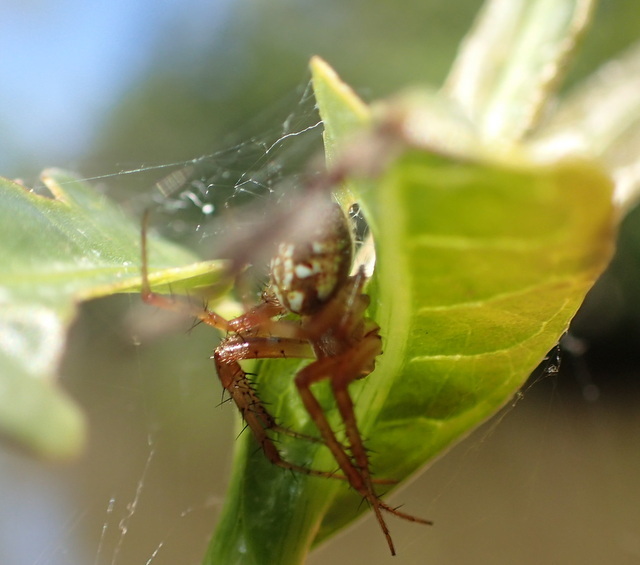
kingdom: Animalia
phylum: Arthropoda
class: Arachnida
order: Araneae
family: Araneidae
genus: Neoscona
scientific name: Neoscona arabesca
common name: Orb weavers
